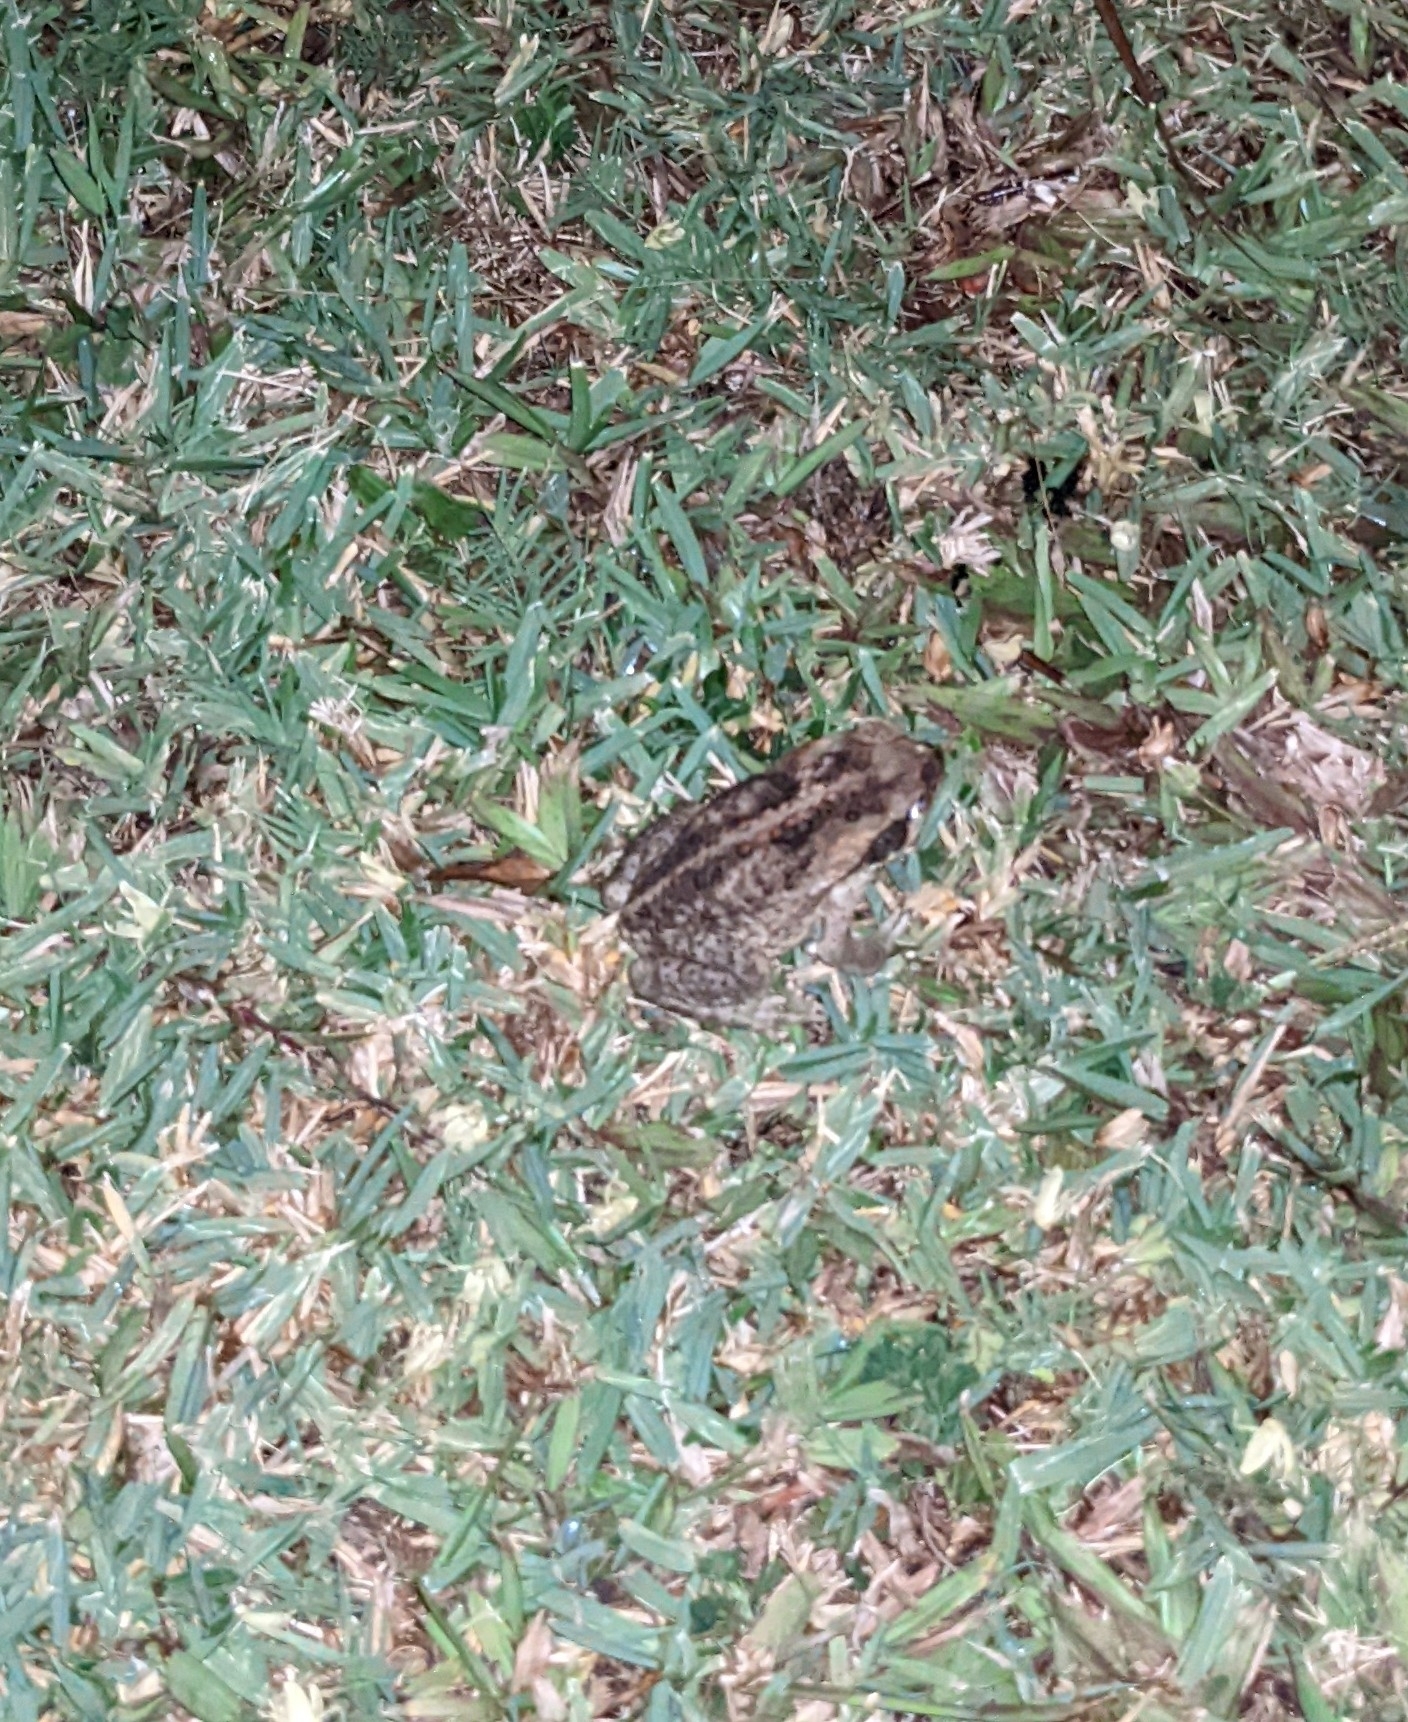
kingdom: Animalia
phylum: Chordata
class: Amphibia
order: Anura
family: Bufonidae
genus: Rhinella
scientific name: Rhinella marina
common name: Cane toad
